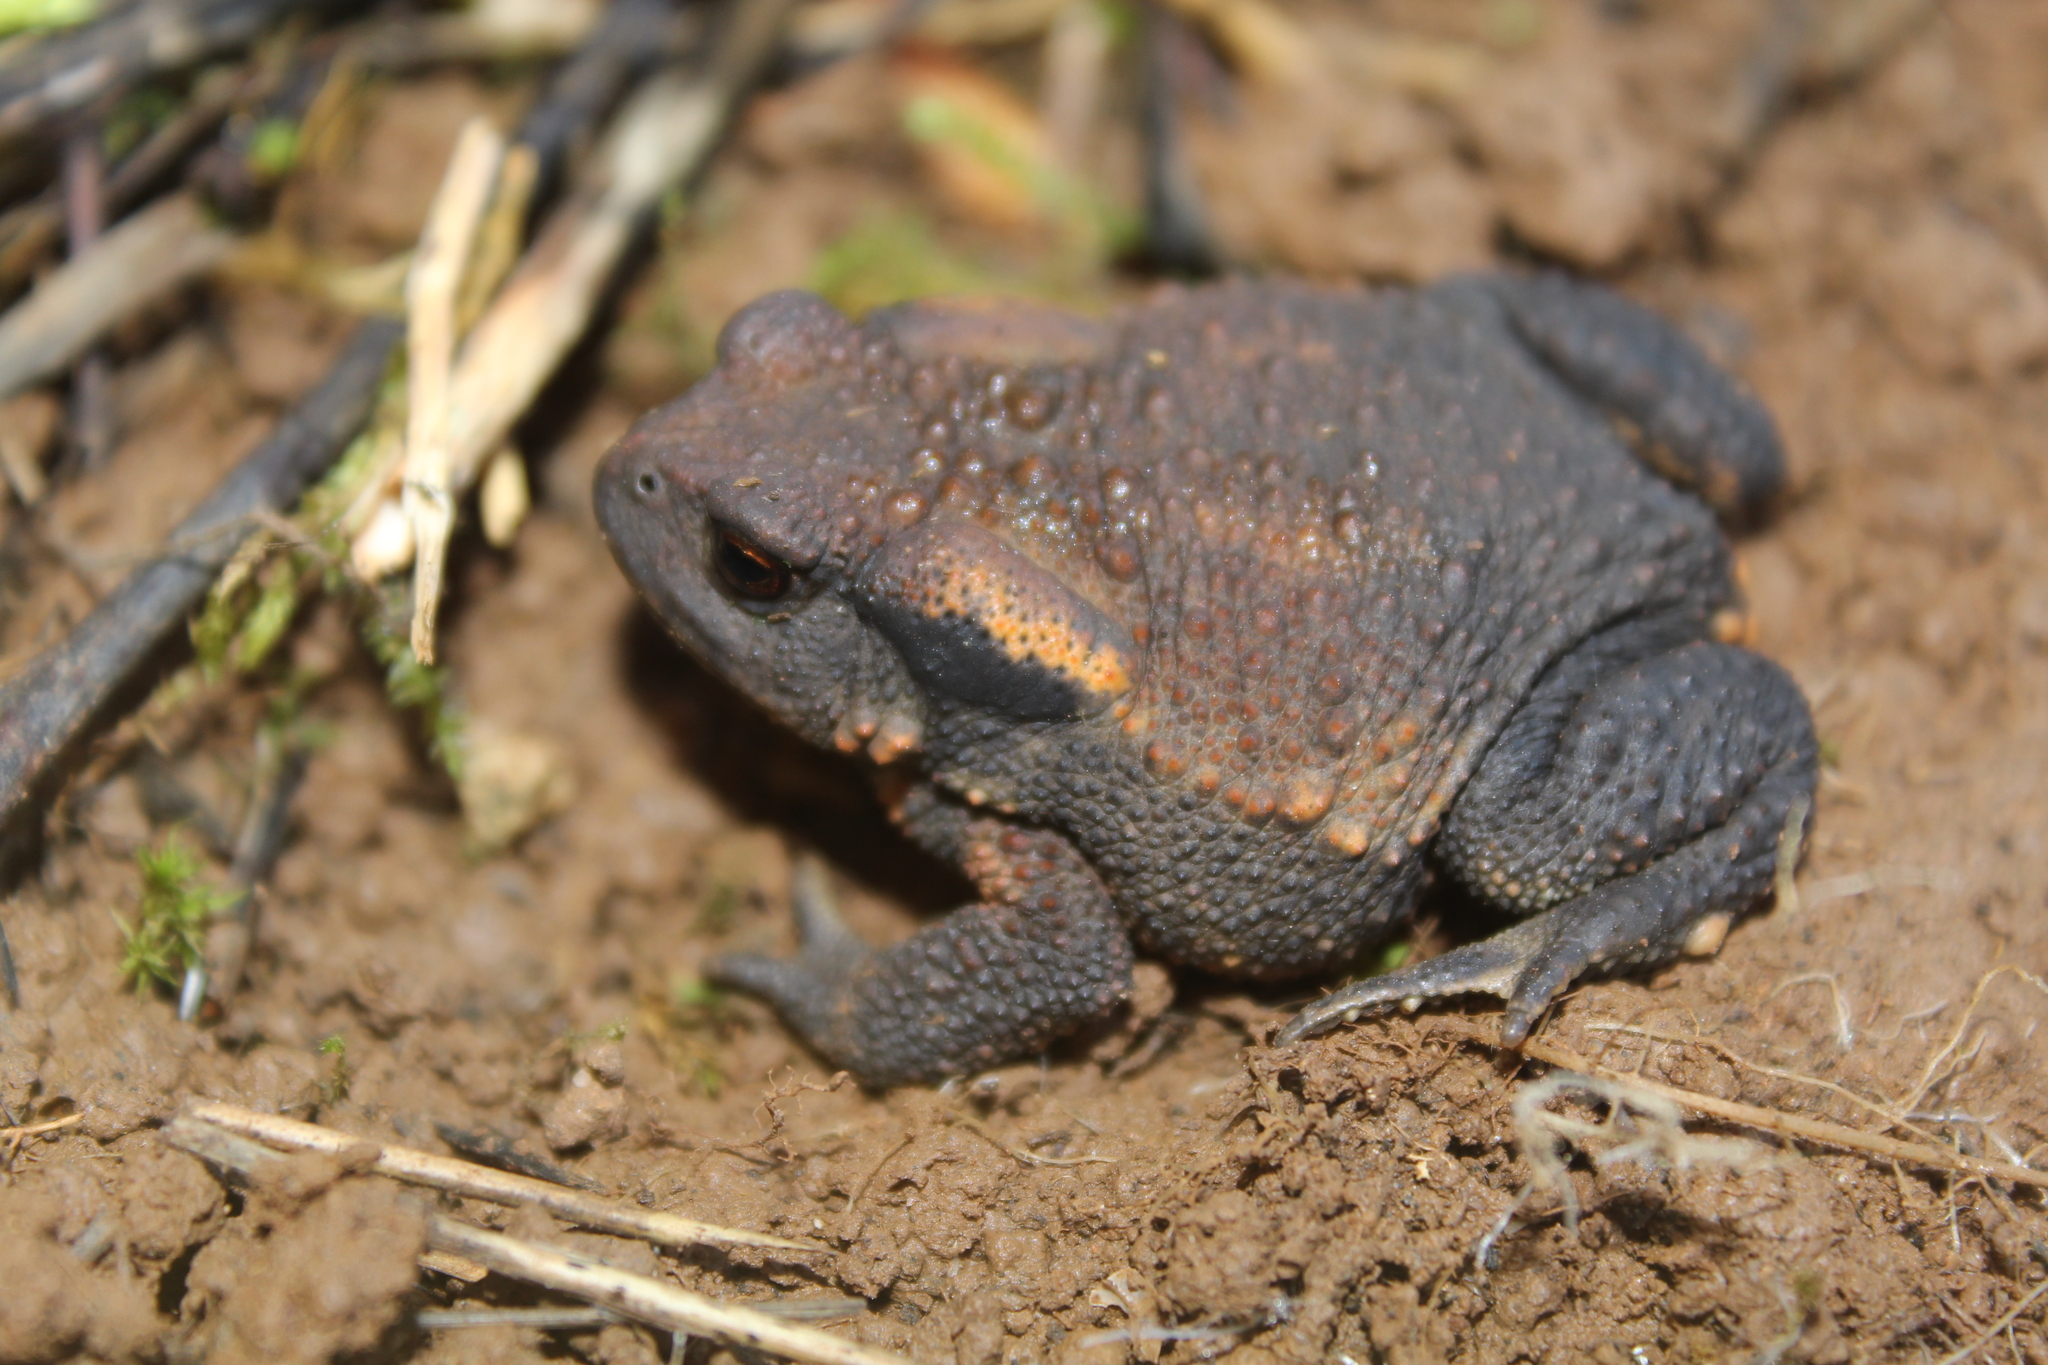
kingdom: Animalia
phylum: Chordata
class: Amphibia
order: Anura
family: Bufonidae
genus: Bufo
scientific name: Bufo spinosus
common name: Western common toad
